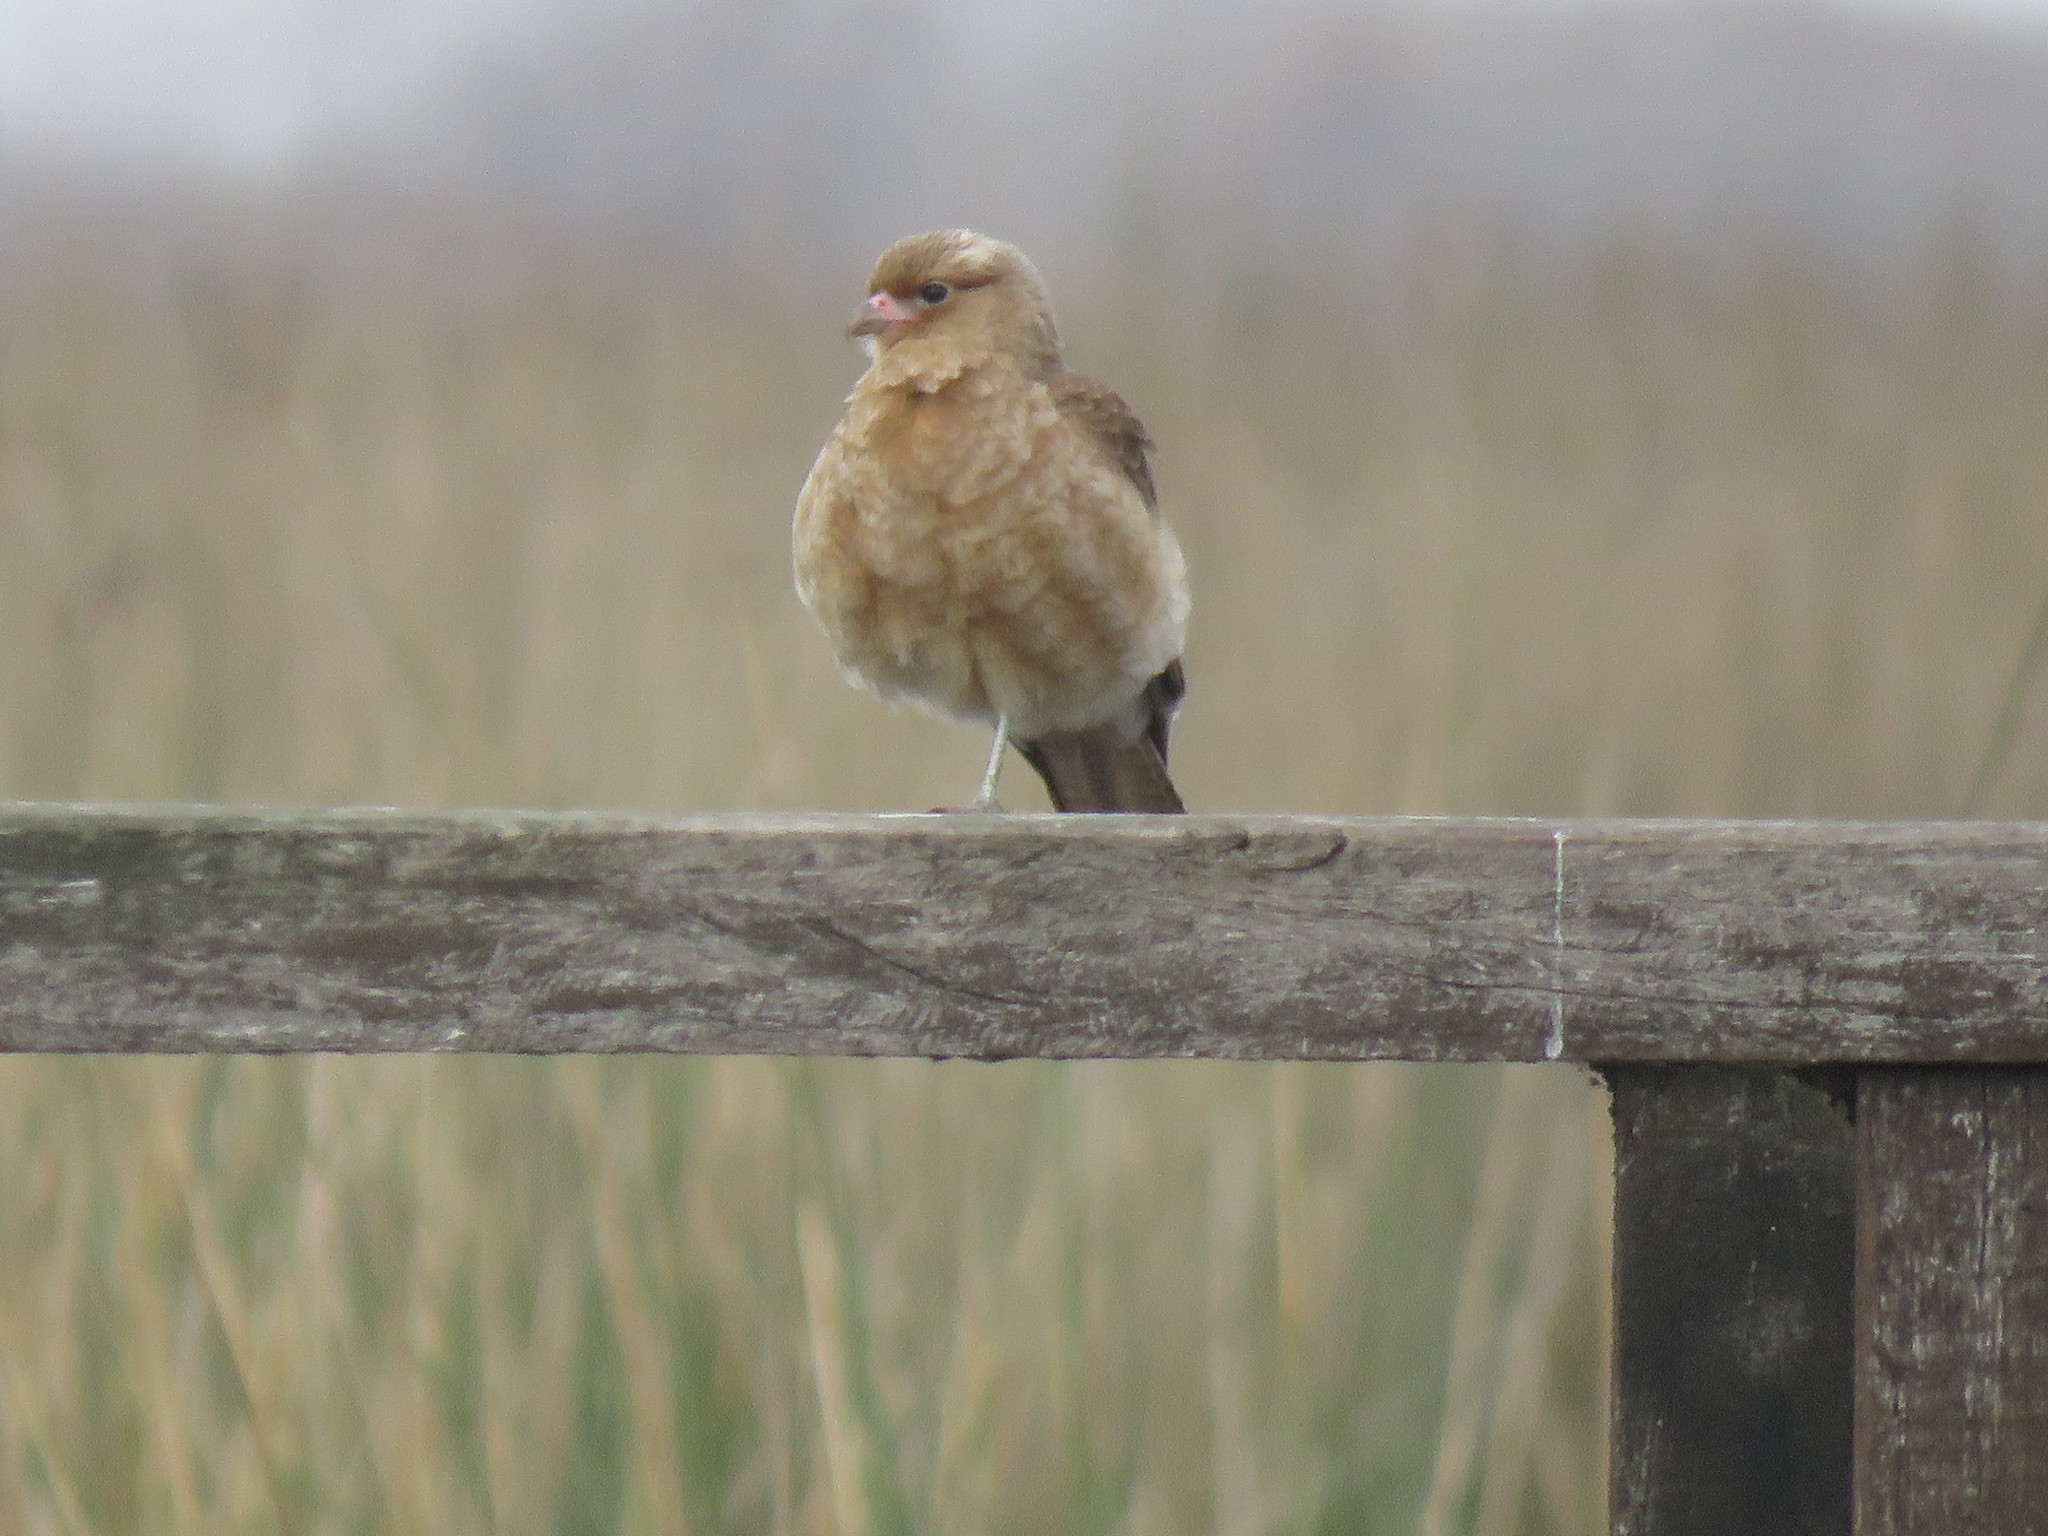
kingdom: Animalia
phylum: Chordata
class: Aves
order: Falconiformes
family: Falconidae
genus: Daptrius
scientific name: Daptrius
